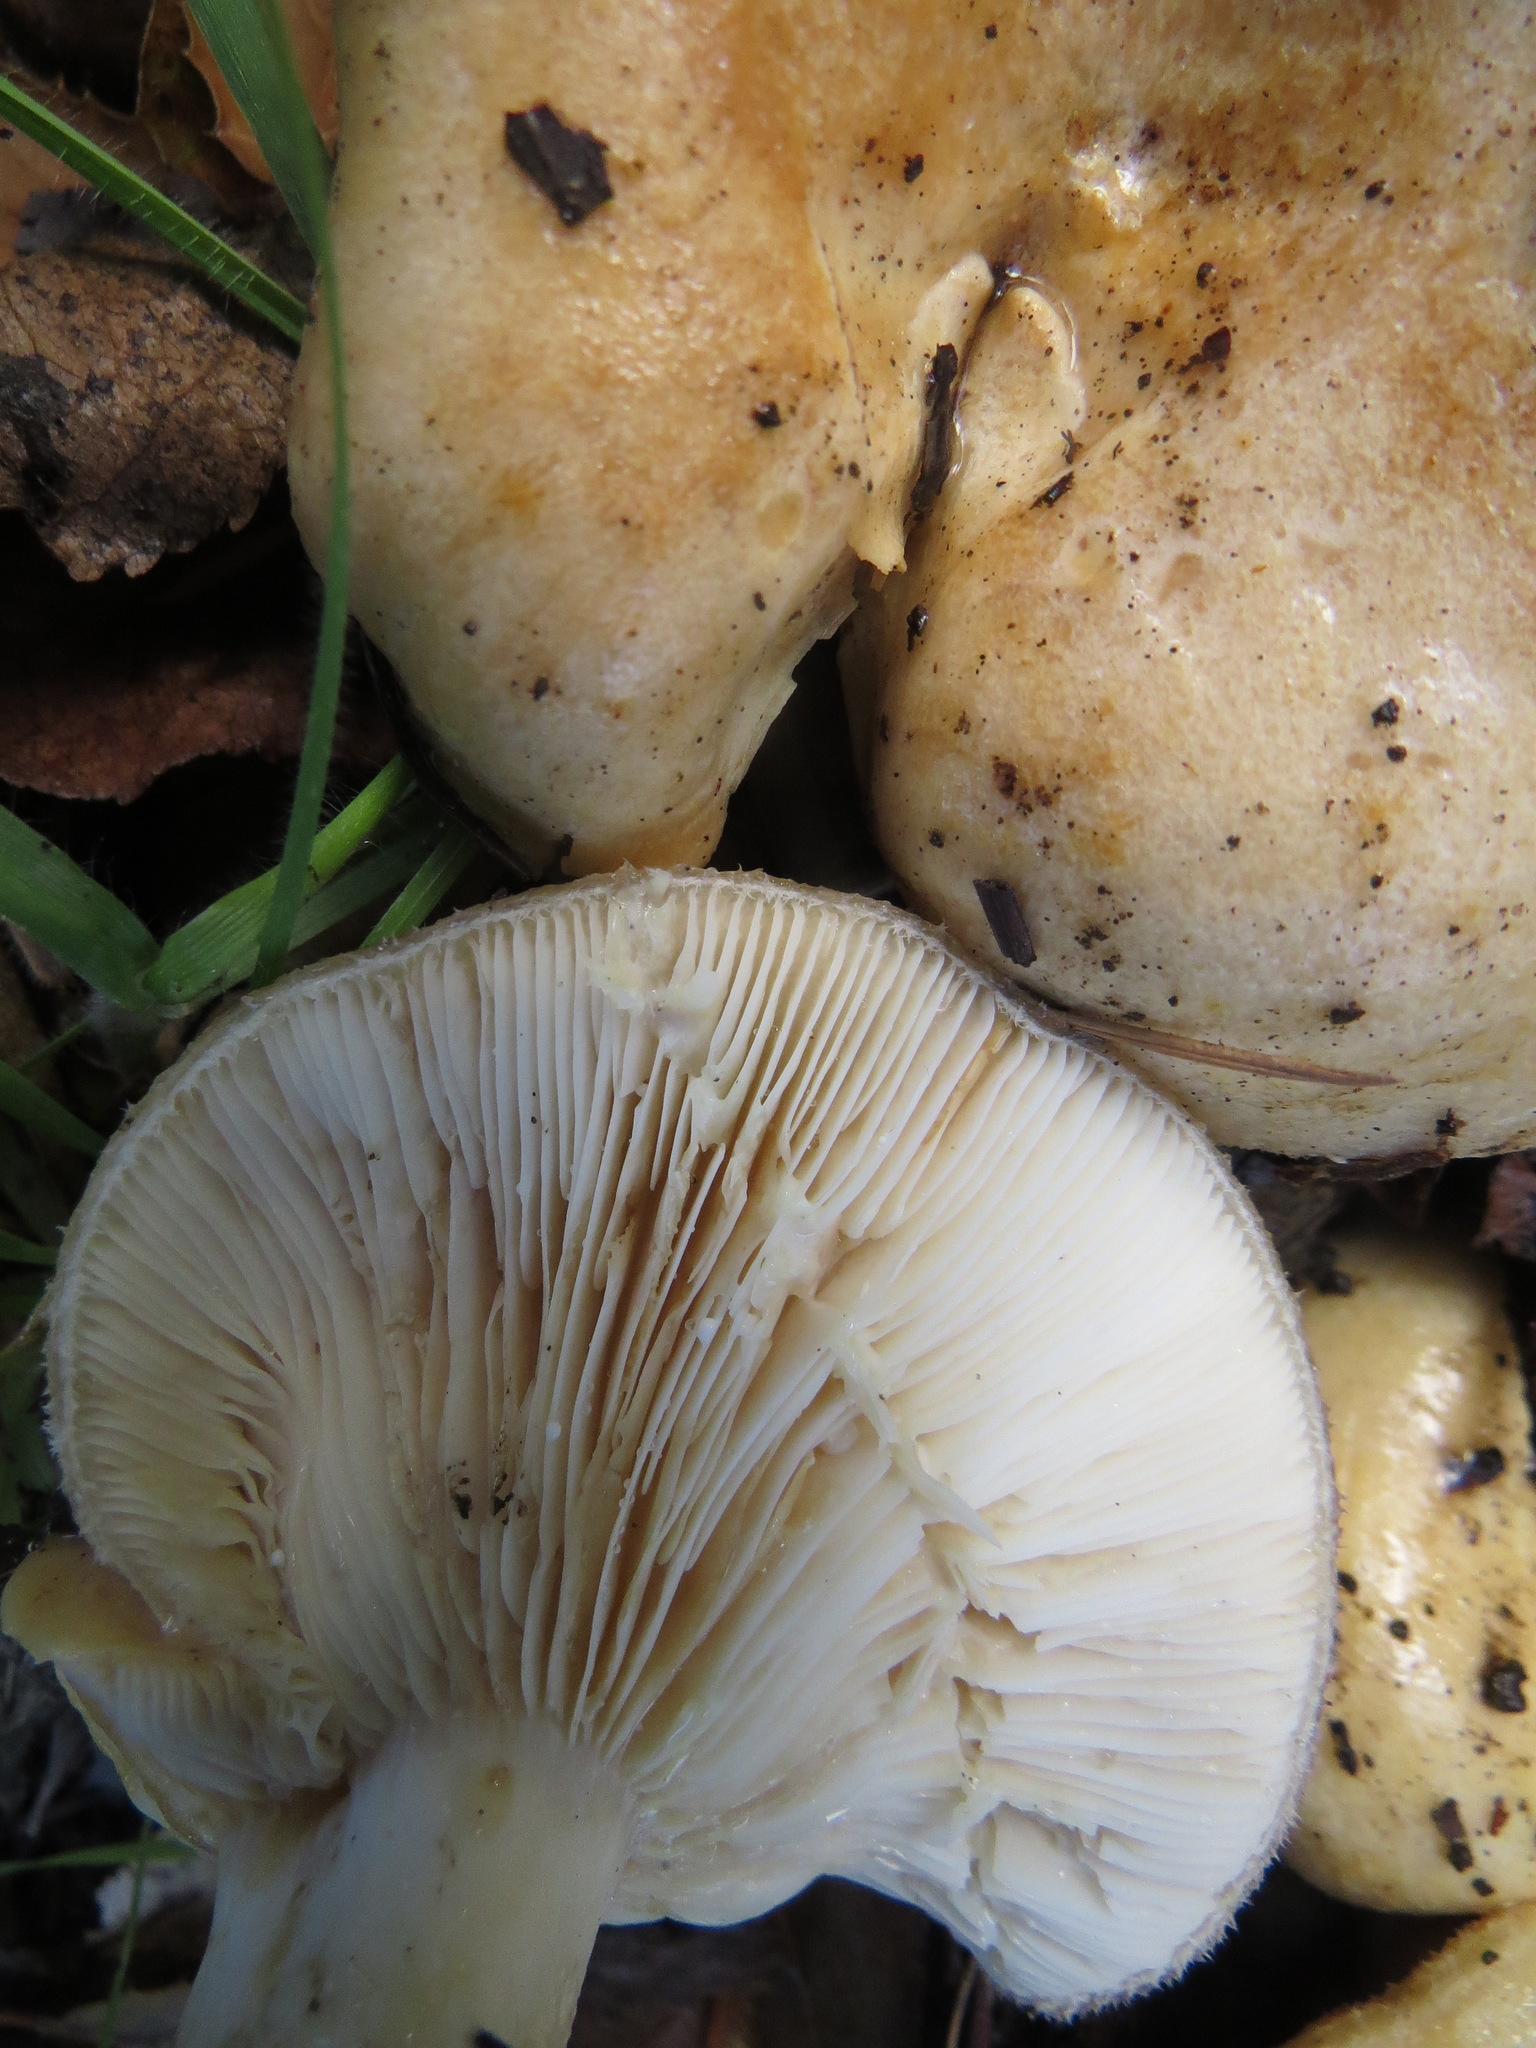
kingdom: Fungi
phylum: Basidiomycota
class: Agaricomycetes
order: Russulales
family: Russulaceae
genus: Lactarius
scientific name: Lactarius alnicola
